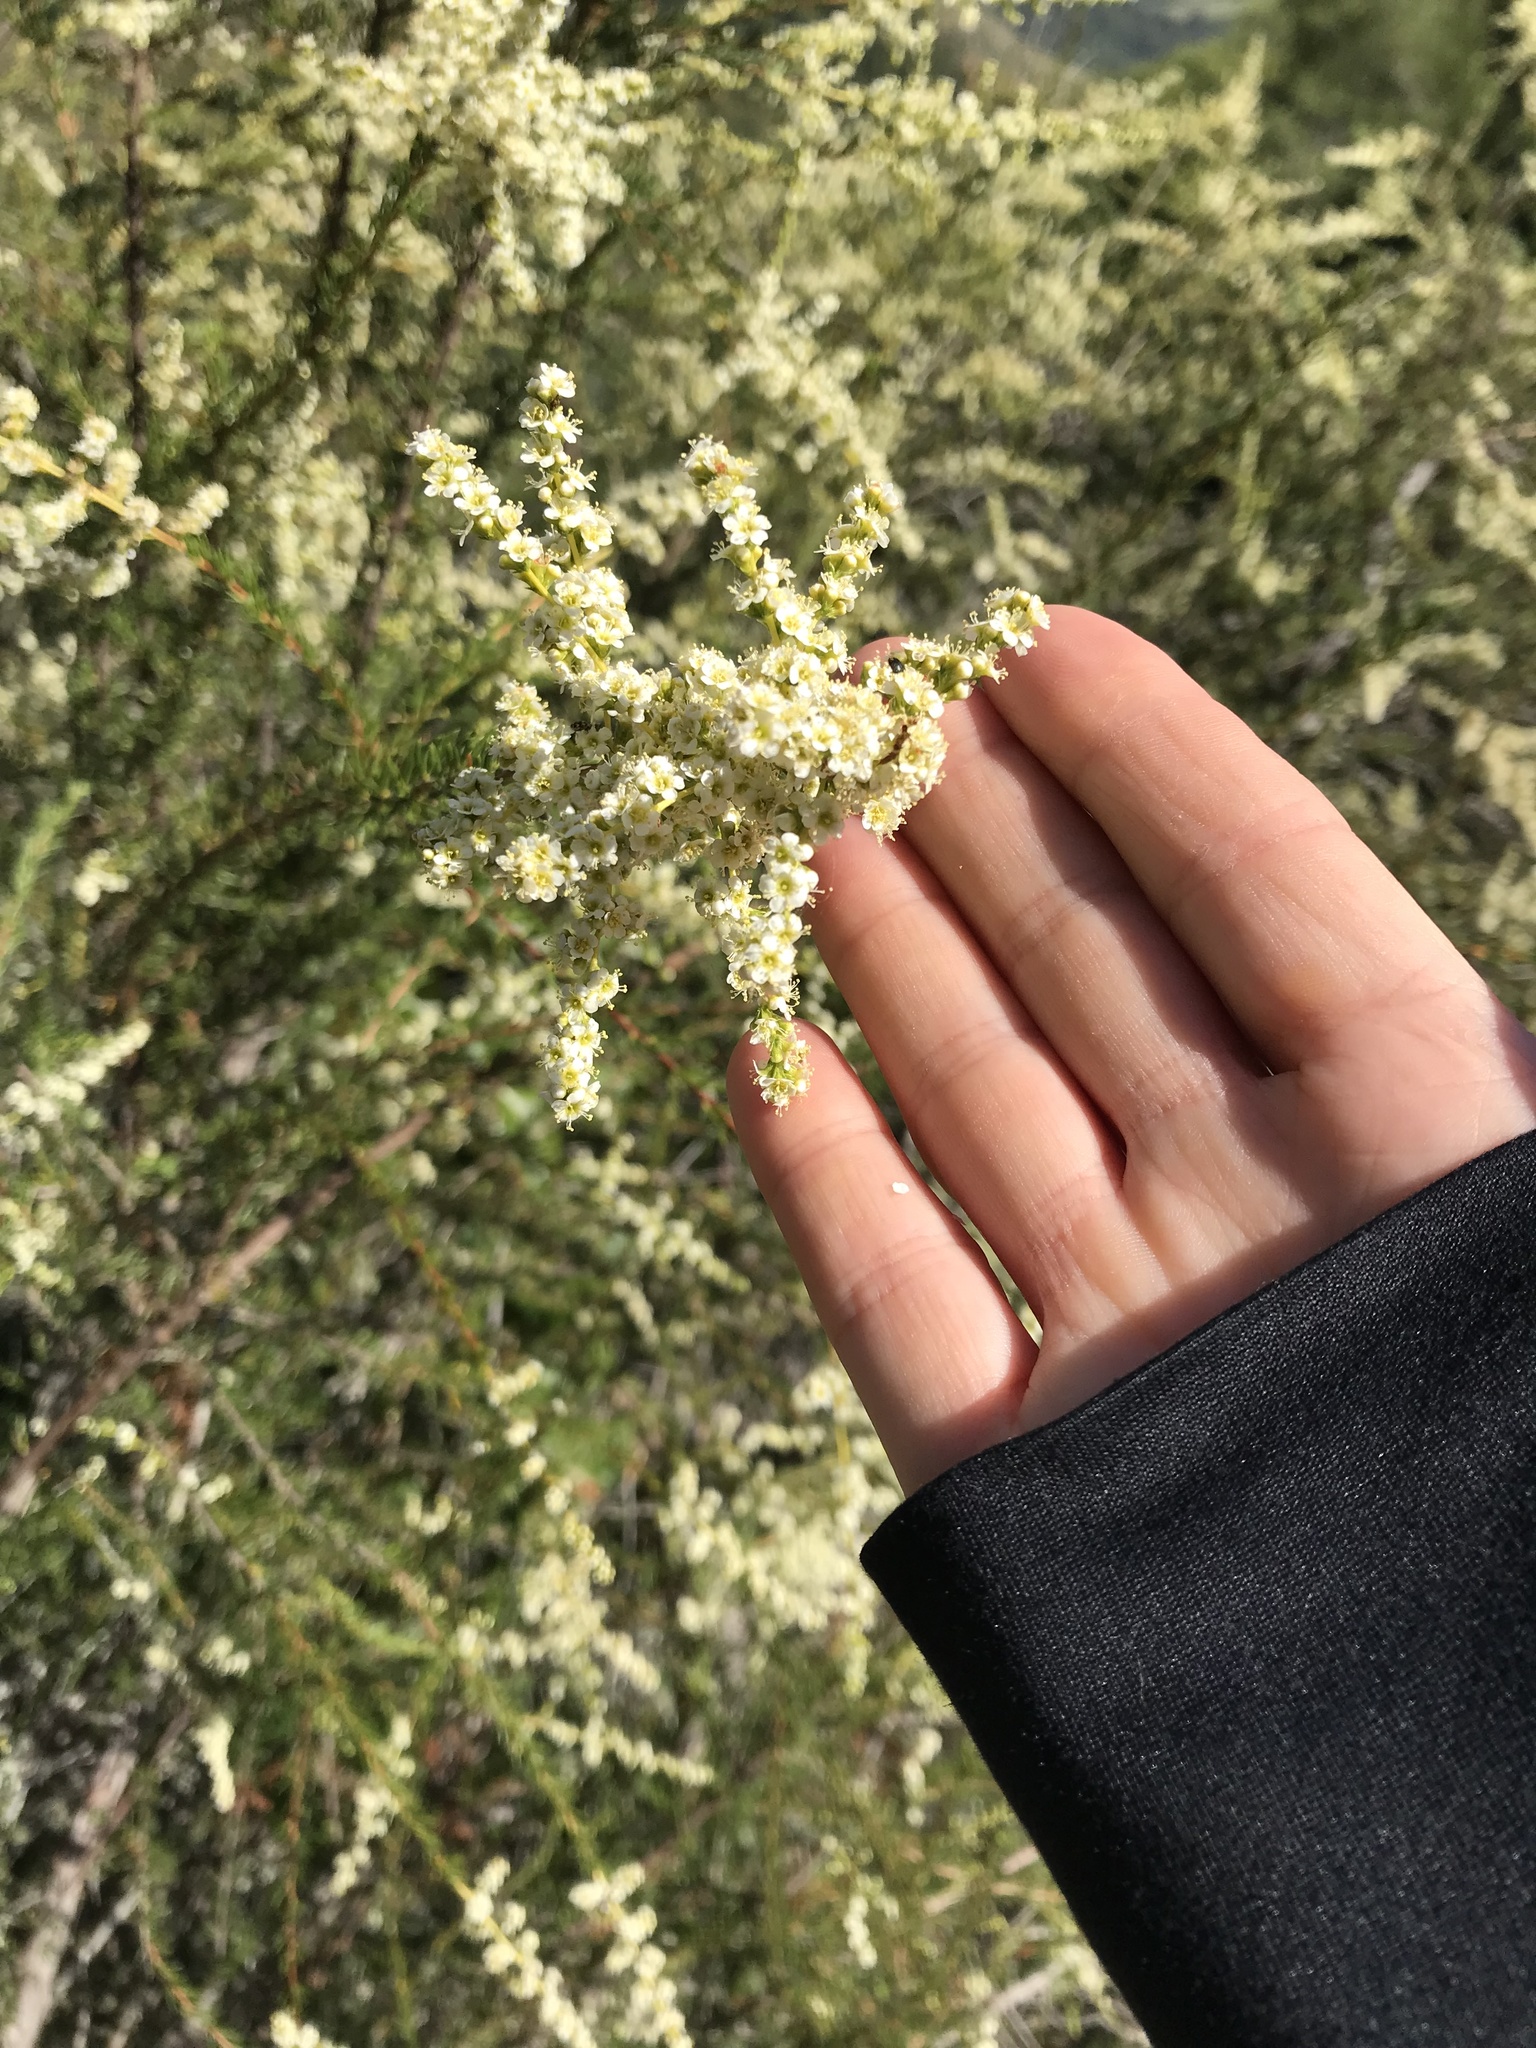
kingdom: Plantae
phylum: Tracheophyta
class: Magnoliopsida
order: Rosales
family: Rosaceae
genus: Adenostoma
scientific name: Adenostoma fasciculatum
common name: Chamise
